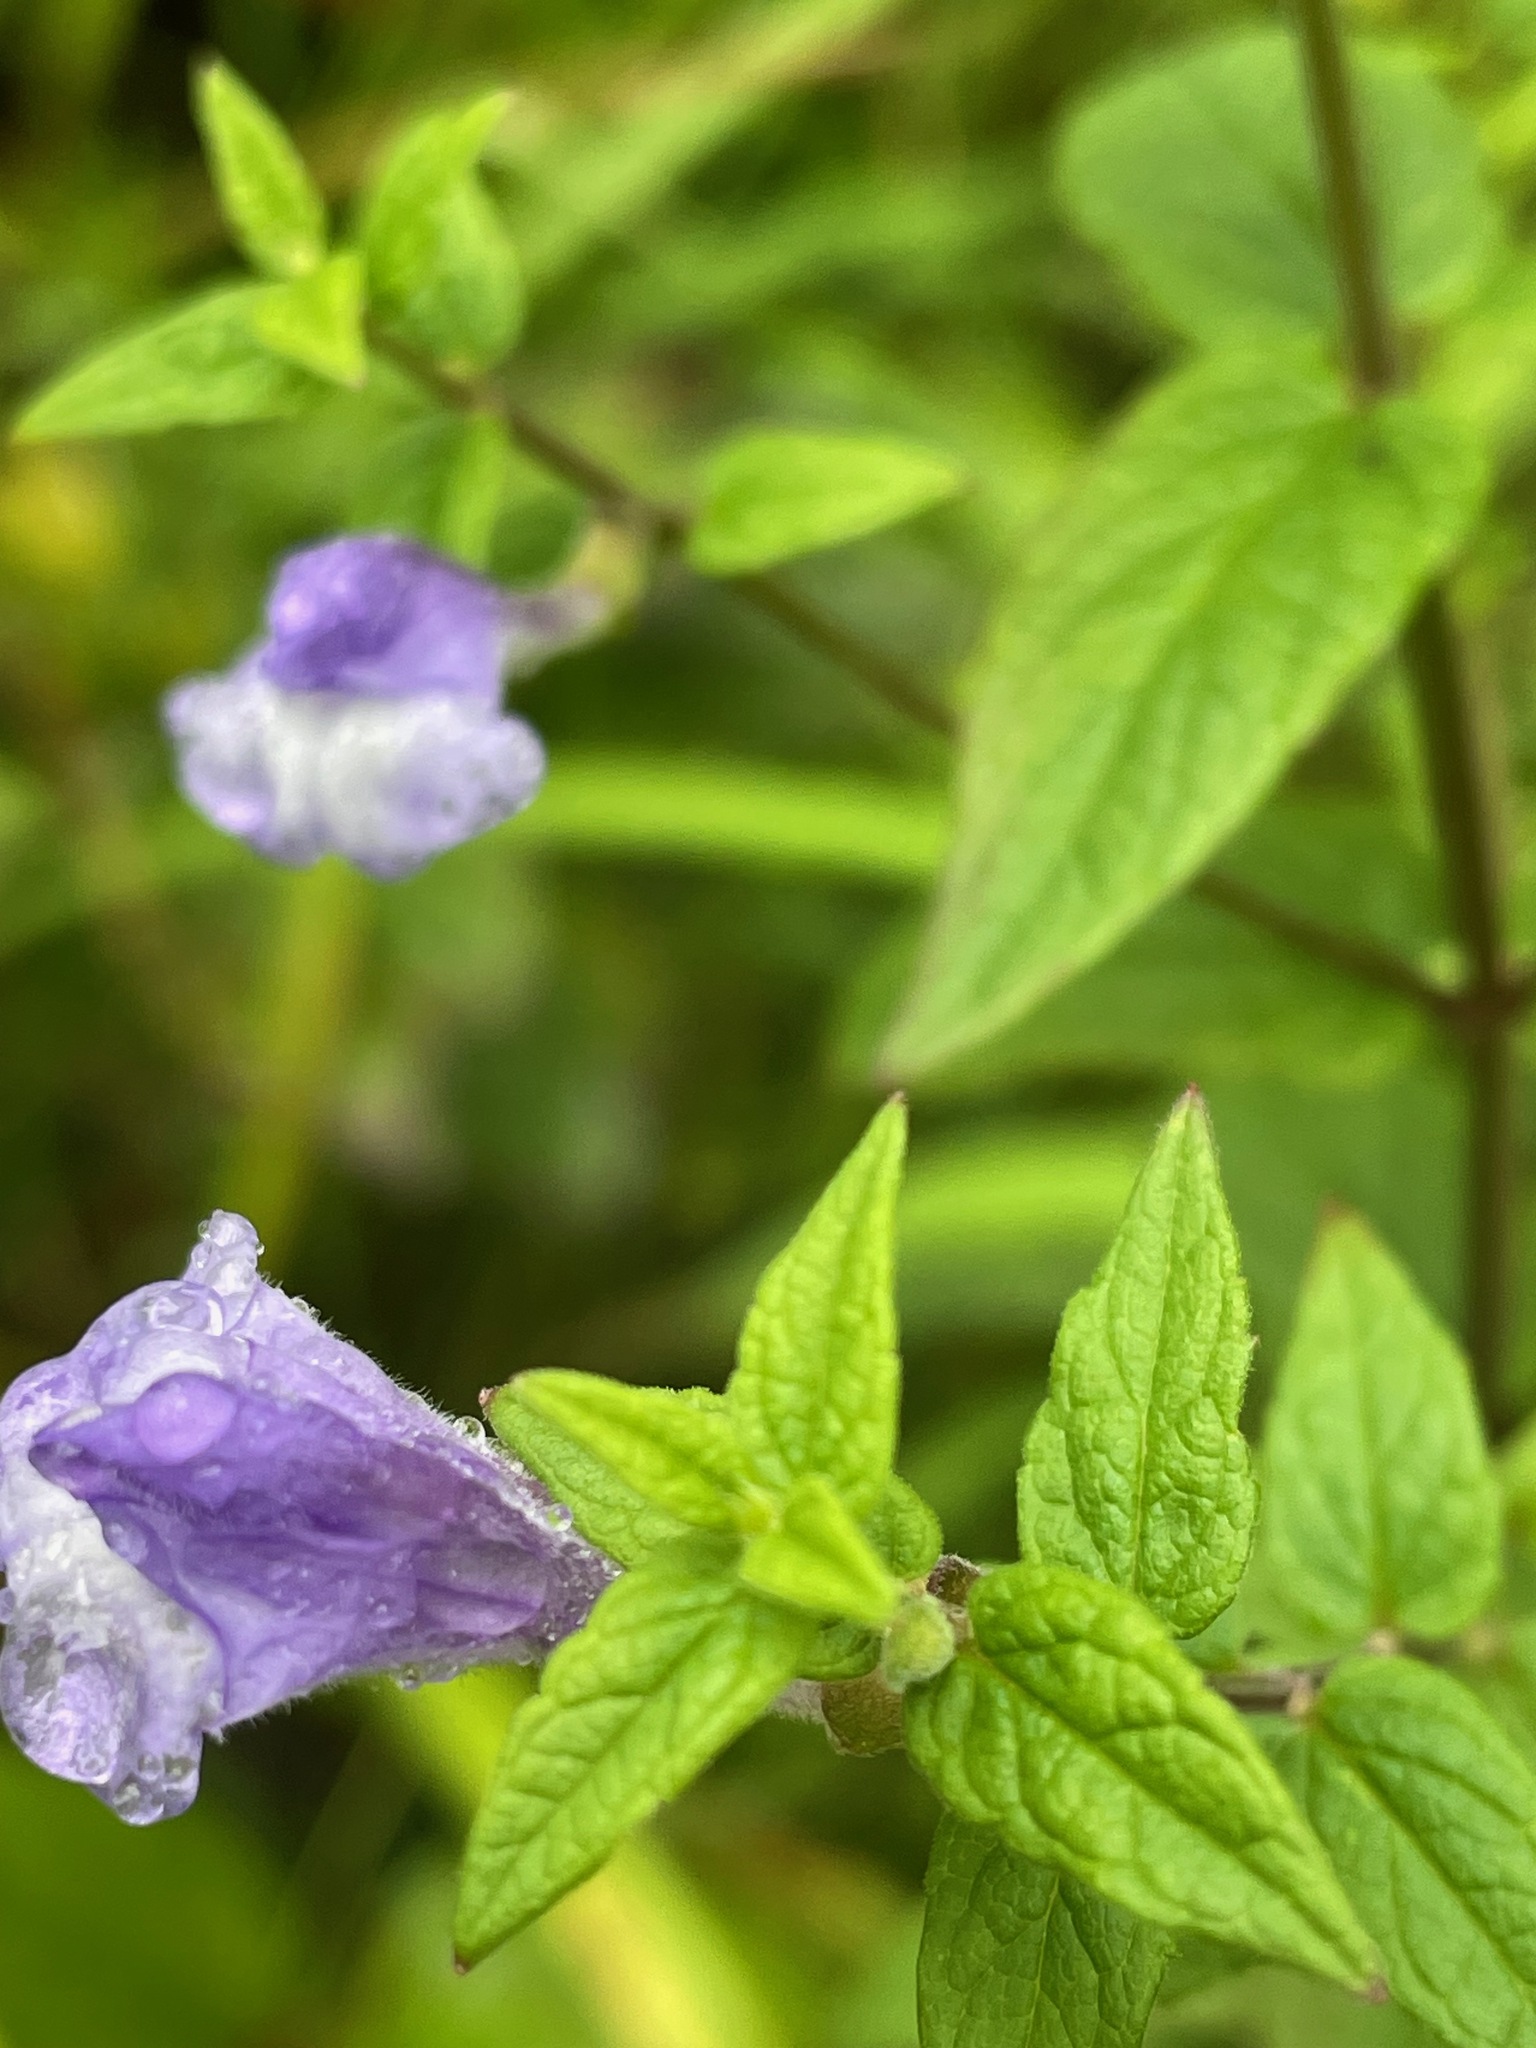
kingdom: Plantae
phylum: Tracheophyta
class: Magnoliopsida
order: Lamiales
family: Lamiaceae
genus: Scutellaria
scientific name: Scutellaria galericulata
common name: Skullcap
